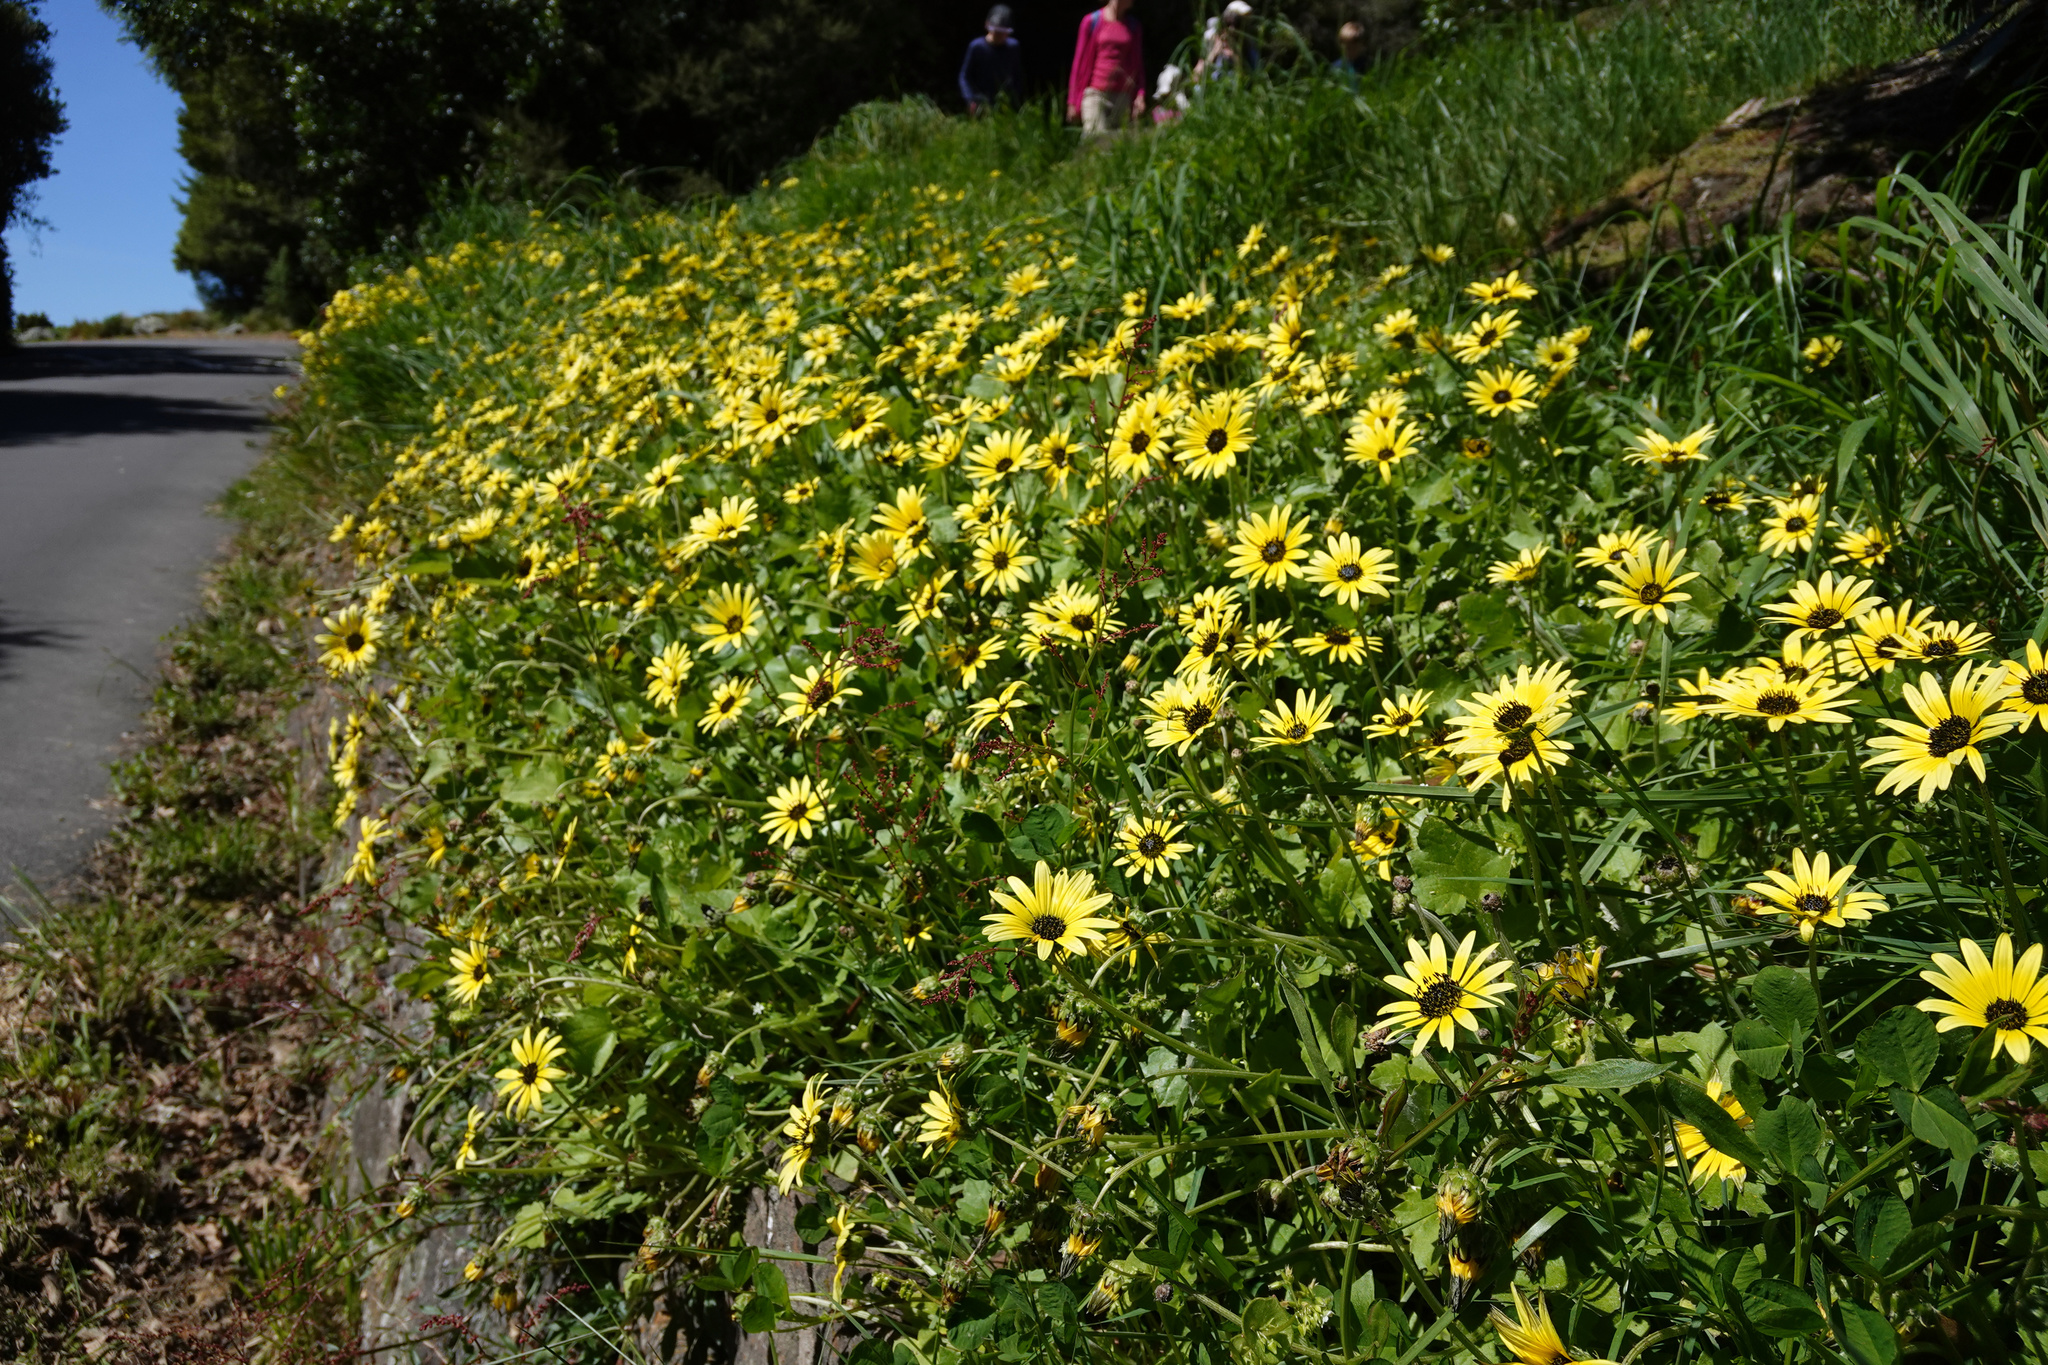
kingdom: Plantae
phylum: Tracheophyta
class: Magnoliopsida
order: Asterales
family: Asteraceae
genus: Arctotheca
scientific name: Arctotheca calendula
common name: Capeweed
